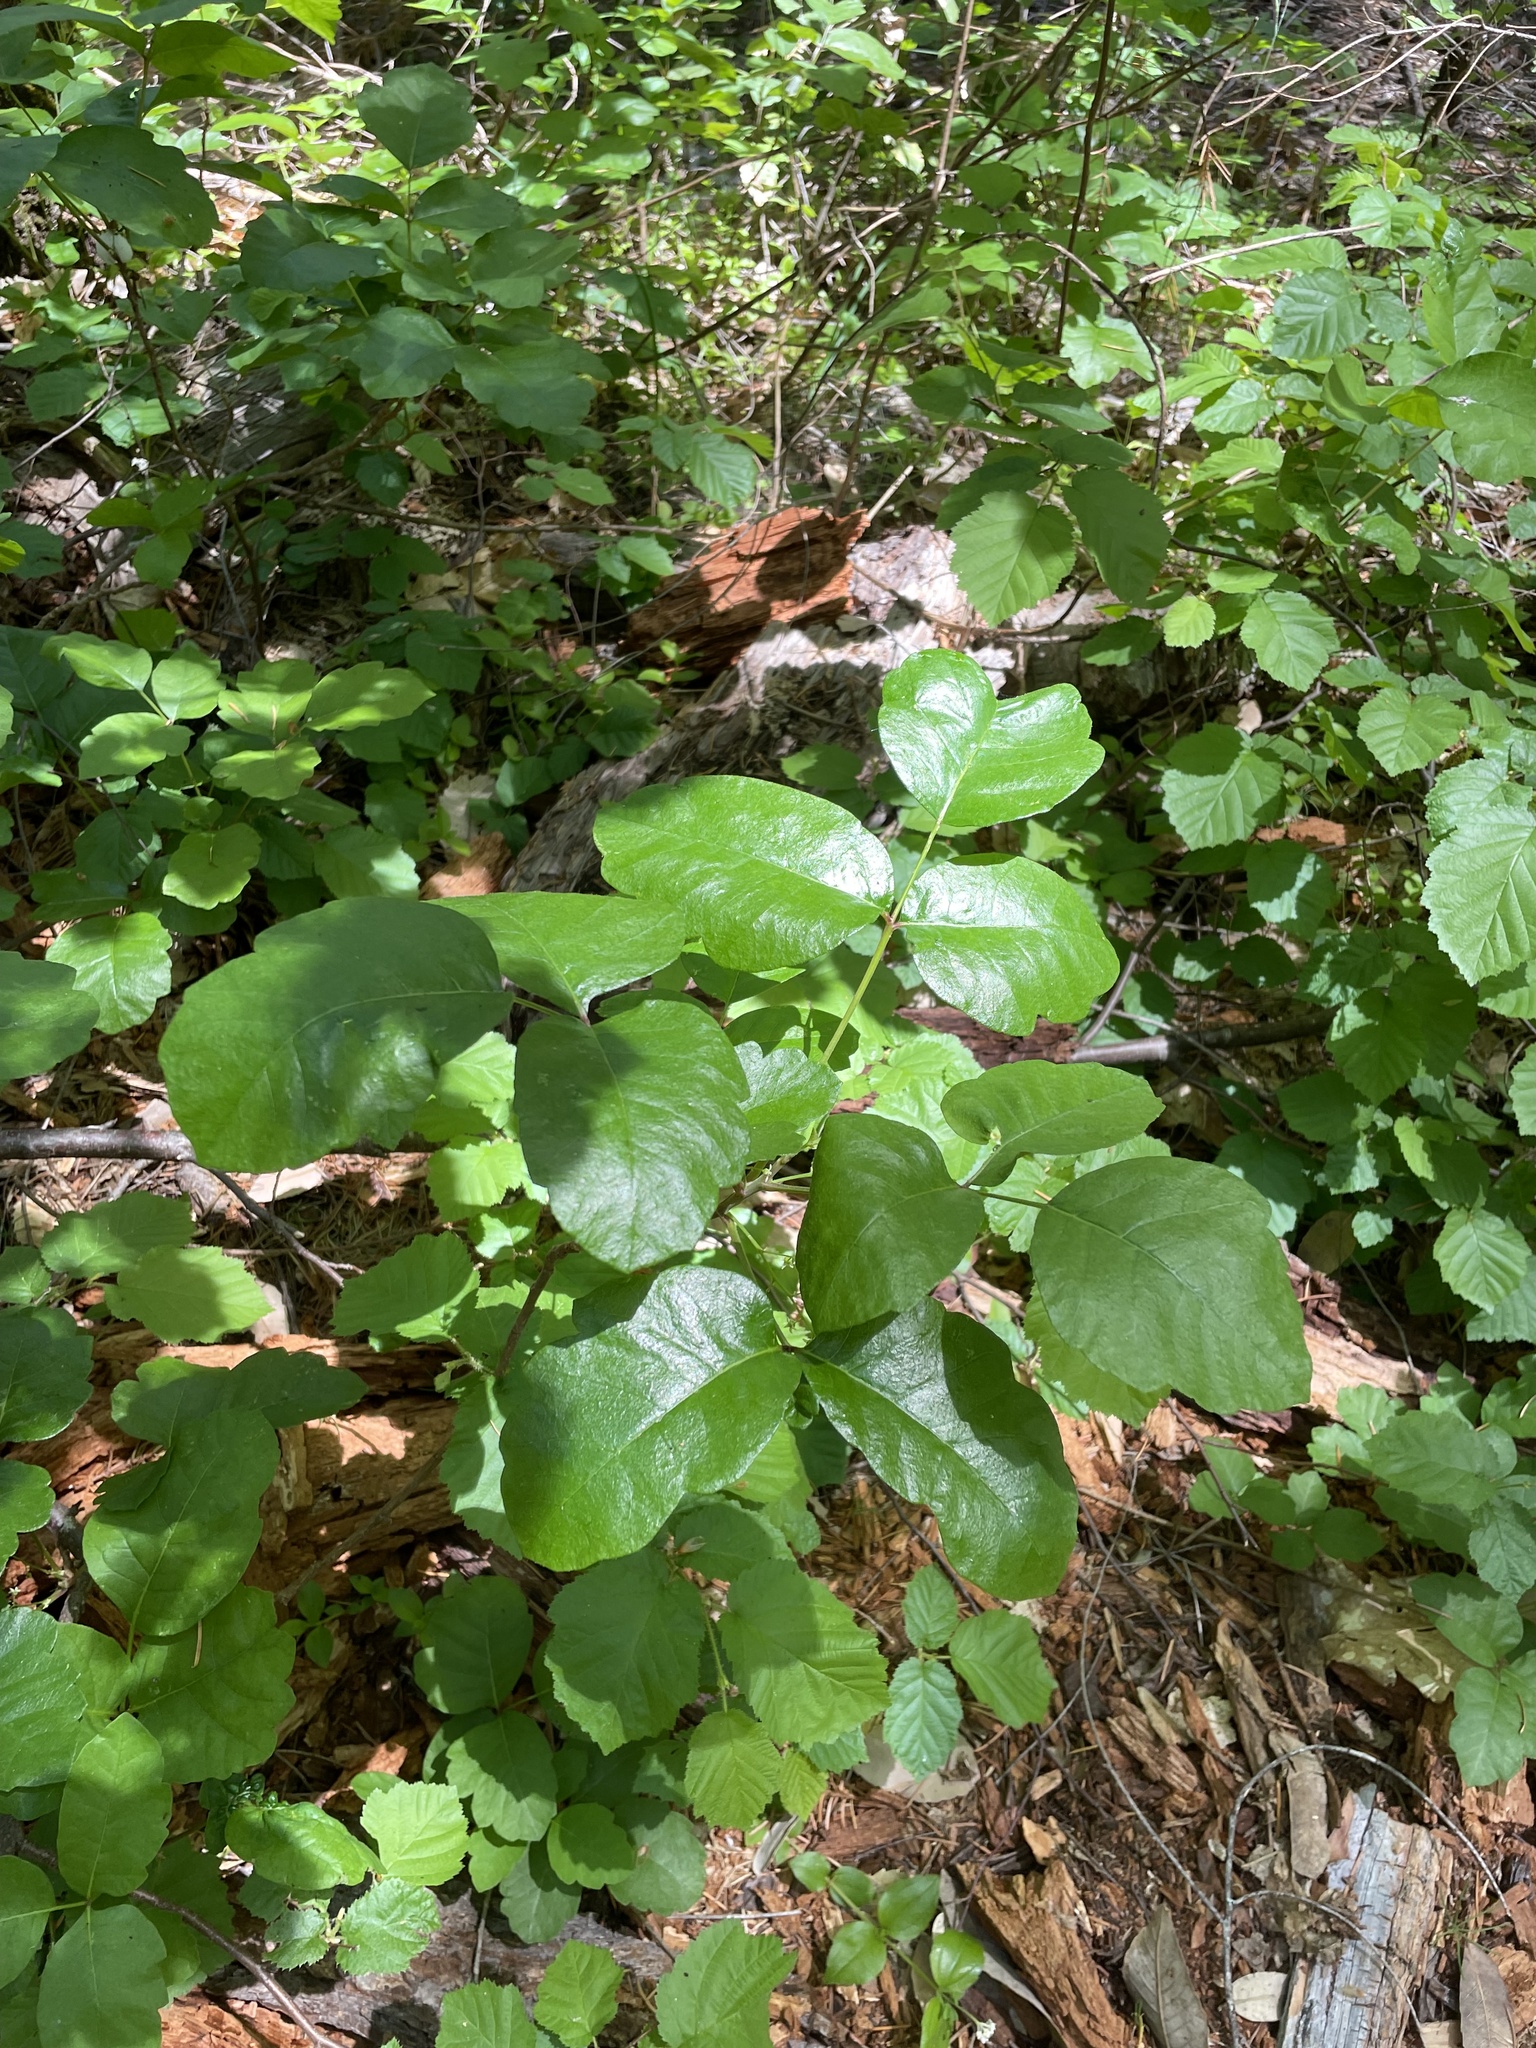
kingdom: Plantae
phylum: Tracheophyta
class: Magnoliopsida
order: Sapindales
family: Anacardiaceae
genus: Toxicodendron
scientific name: Toxicodendron diversilobum
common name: Pacific poison-oak
